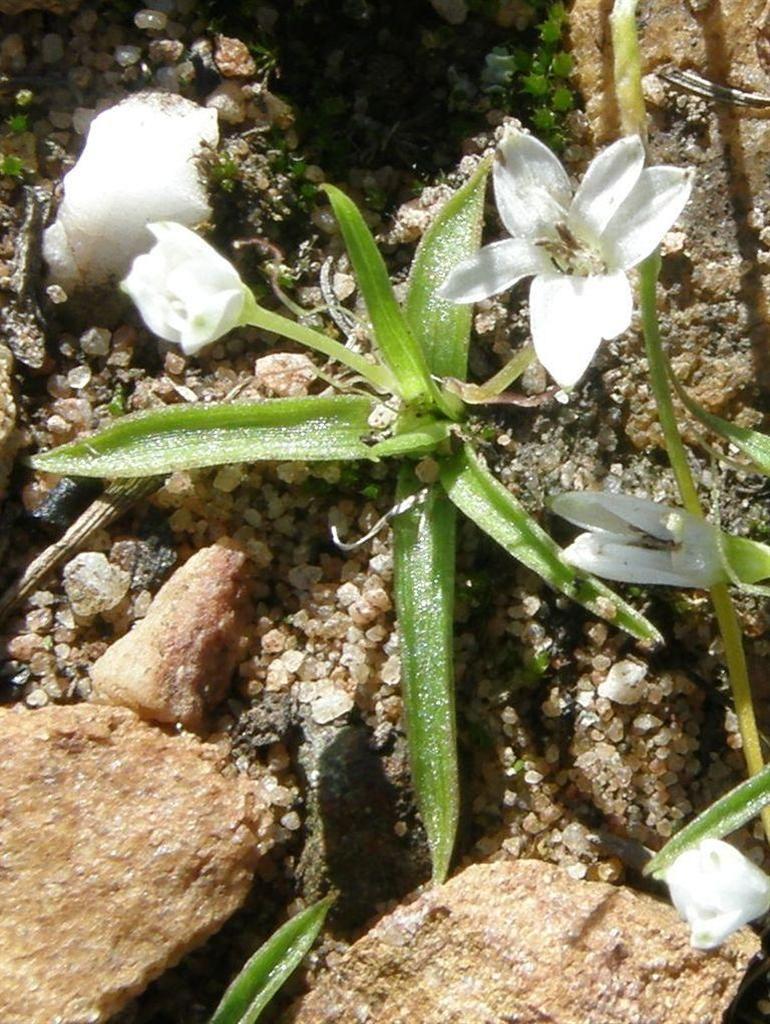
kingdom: Plantae
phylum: Tracheophyta
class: Liliopsida
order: Asparagales
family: Hypoxidaceae
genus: Pauridia
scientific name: Pauridia minuta
